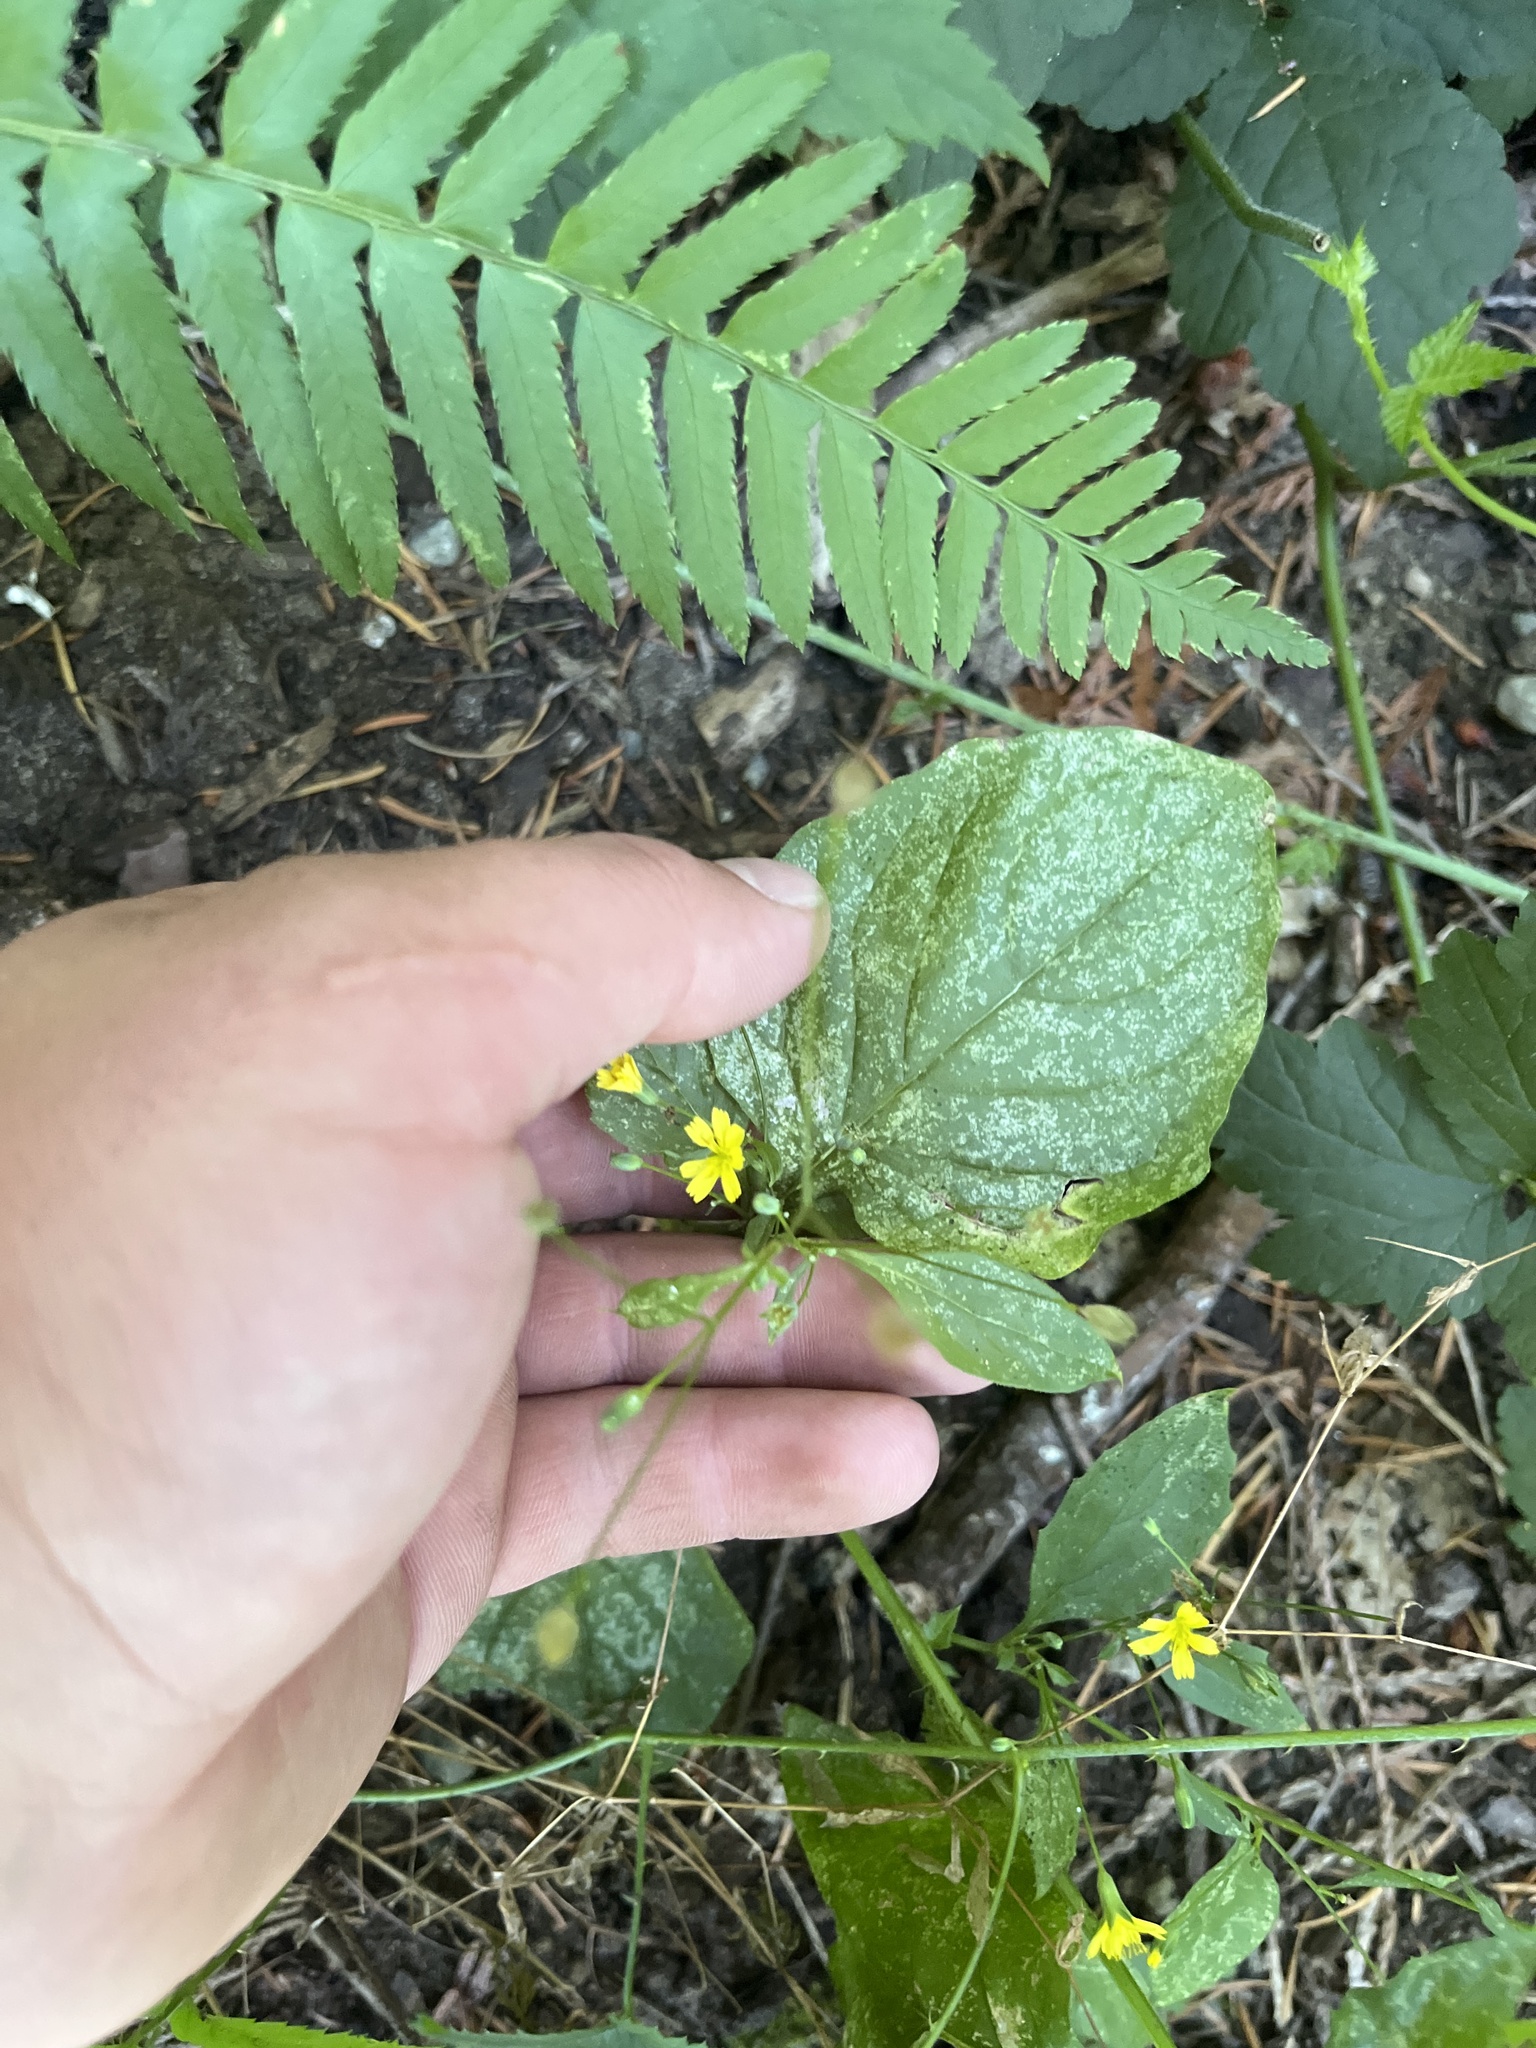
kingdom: Plantae
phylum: Tracheophyta
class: Magnoliopsida
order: Asterales
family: Asteraceae
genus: Lapsana
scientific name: Lapsana communis
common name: Nipplewort
